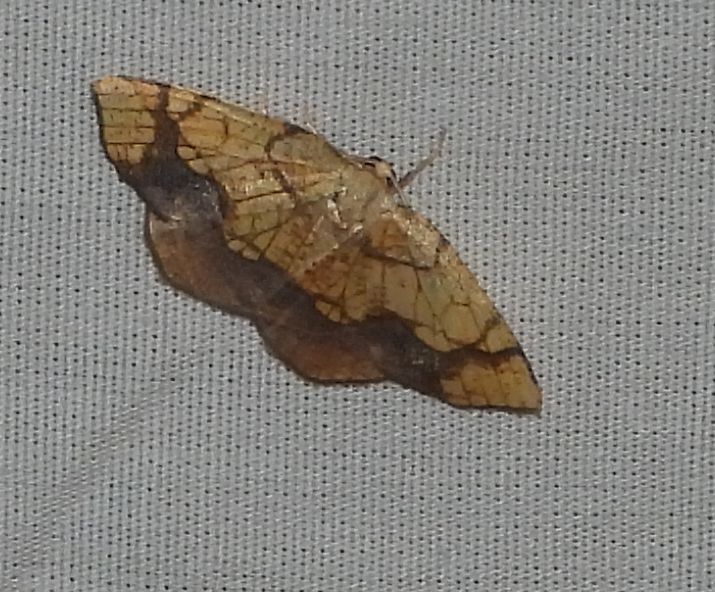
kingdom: Animalia
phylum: Arthropoda
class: Insecta
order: Lepidoptera
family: Geometridae
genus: Nematocampa
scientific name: Nematocampa resistaria
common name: Horned spanworm moth
